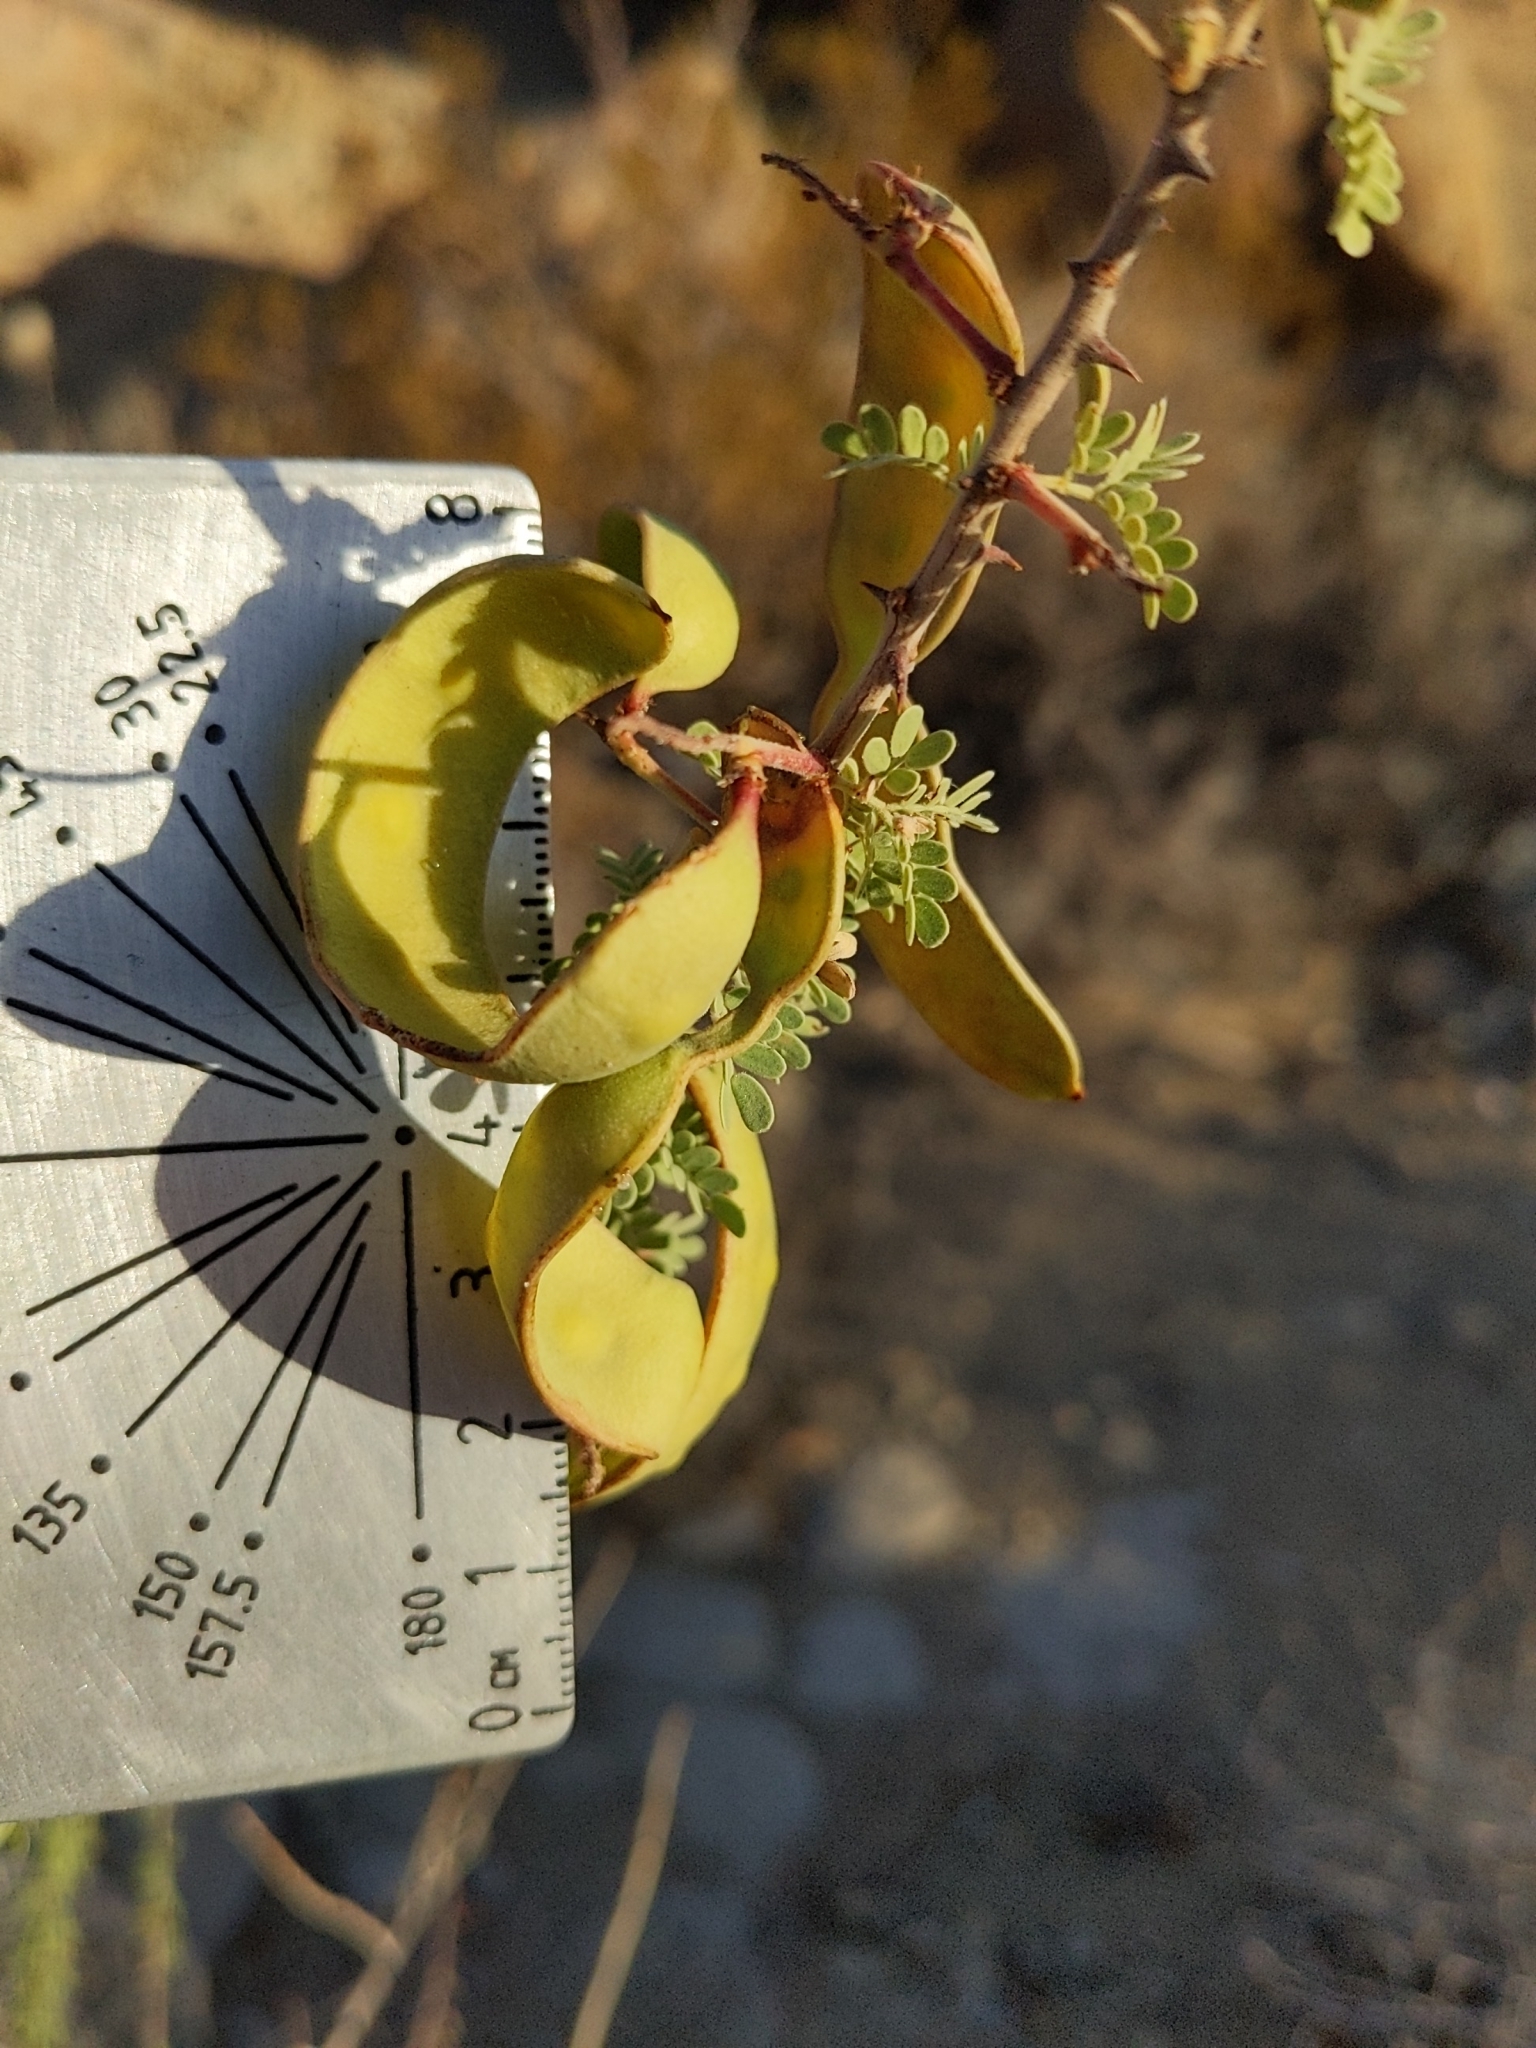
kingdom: Plantae
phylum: Tracheophyta
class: Magnoliopsida
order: Fabales
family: Fabaceae
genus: Senegalia
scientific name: Senegalia greggii
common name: Texas-mimosa
